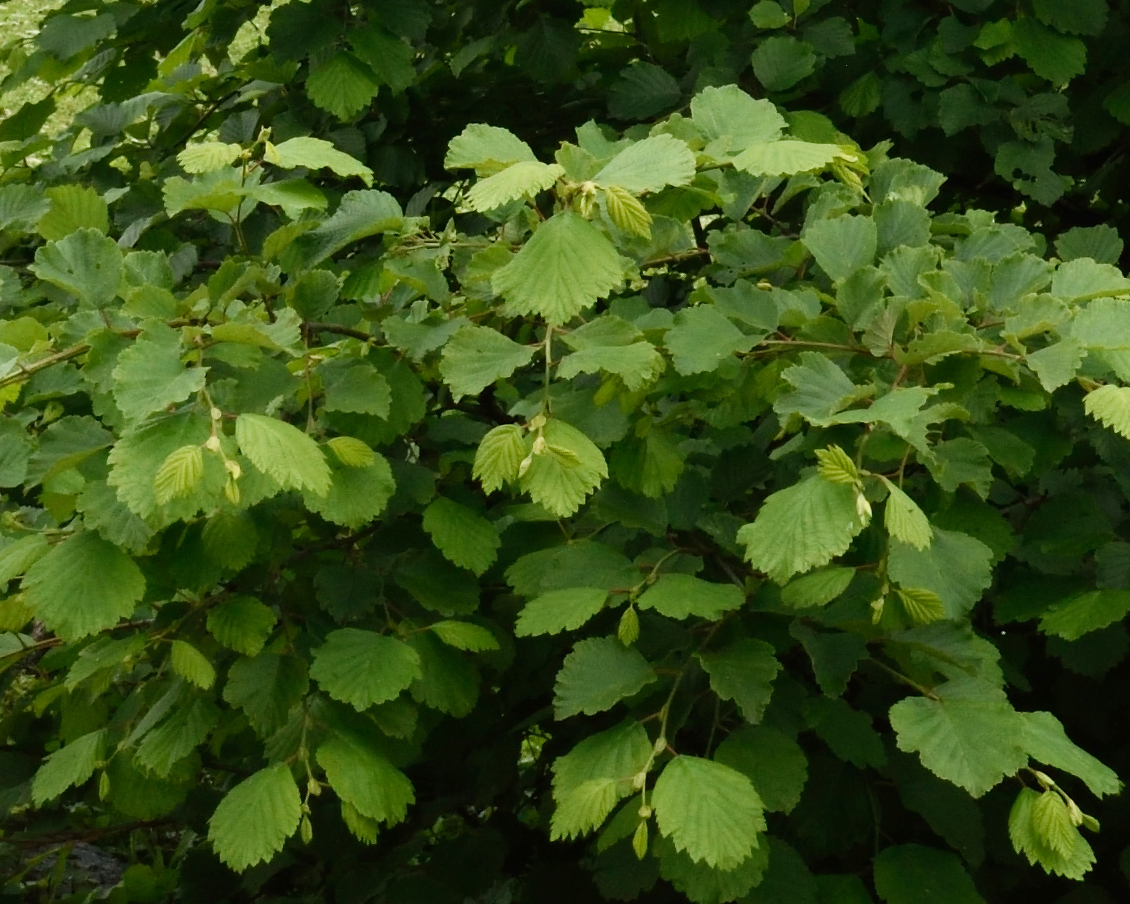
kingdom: Plantae
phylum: Tracheophyta
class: Magnoliopsida
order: Fagales
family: Betulaceae
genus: Alnus
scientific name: Alnus hirsuta
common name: Manchurian alder
